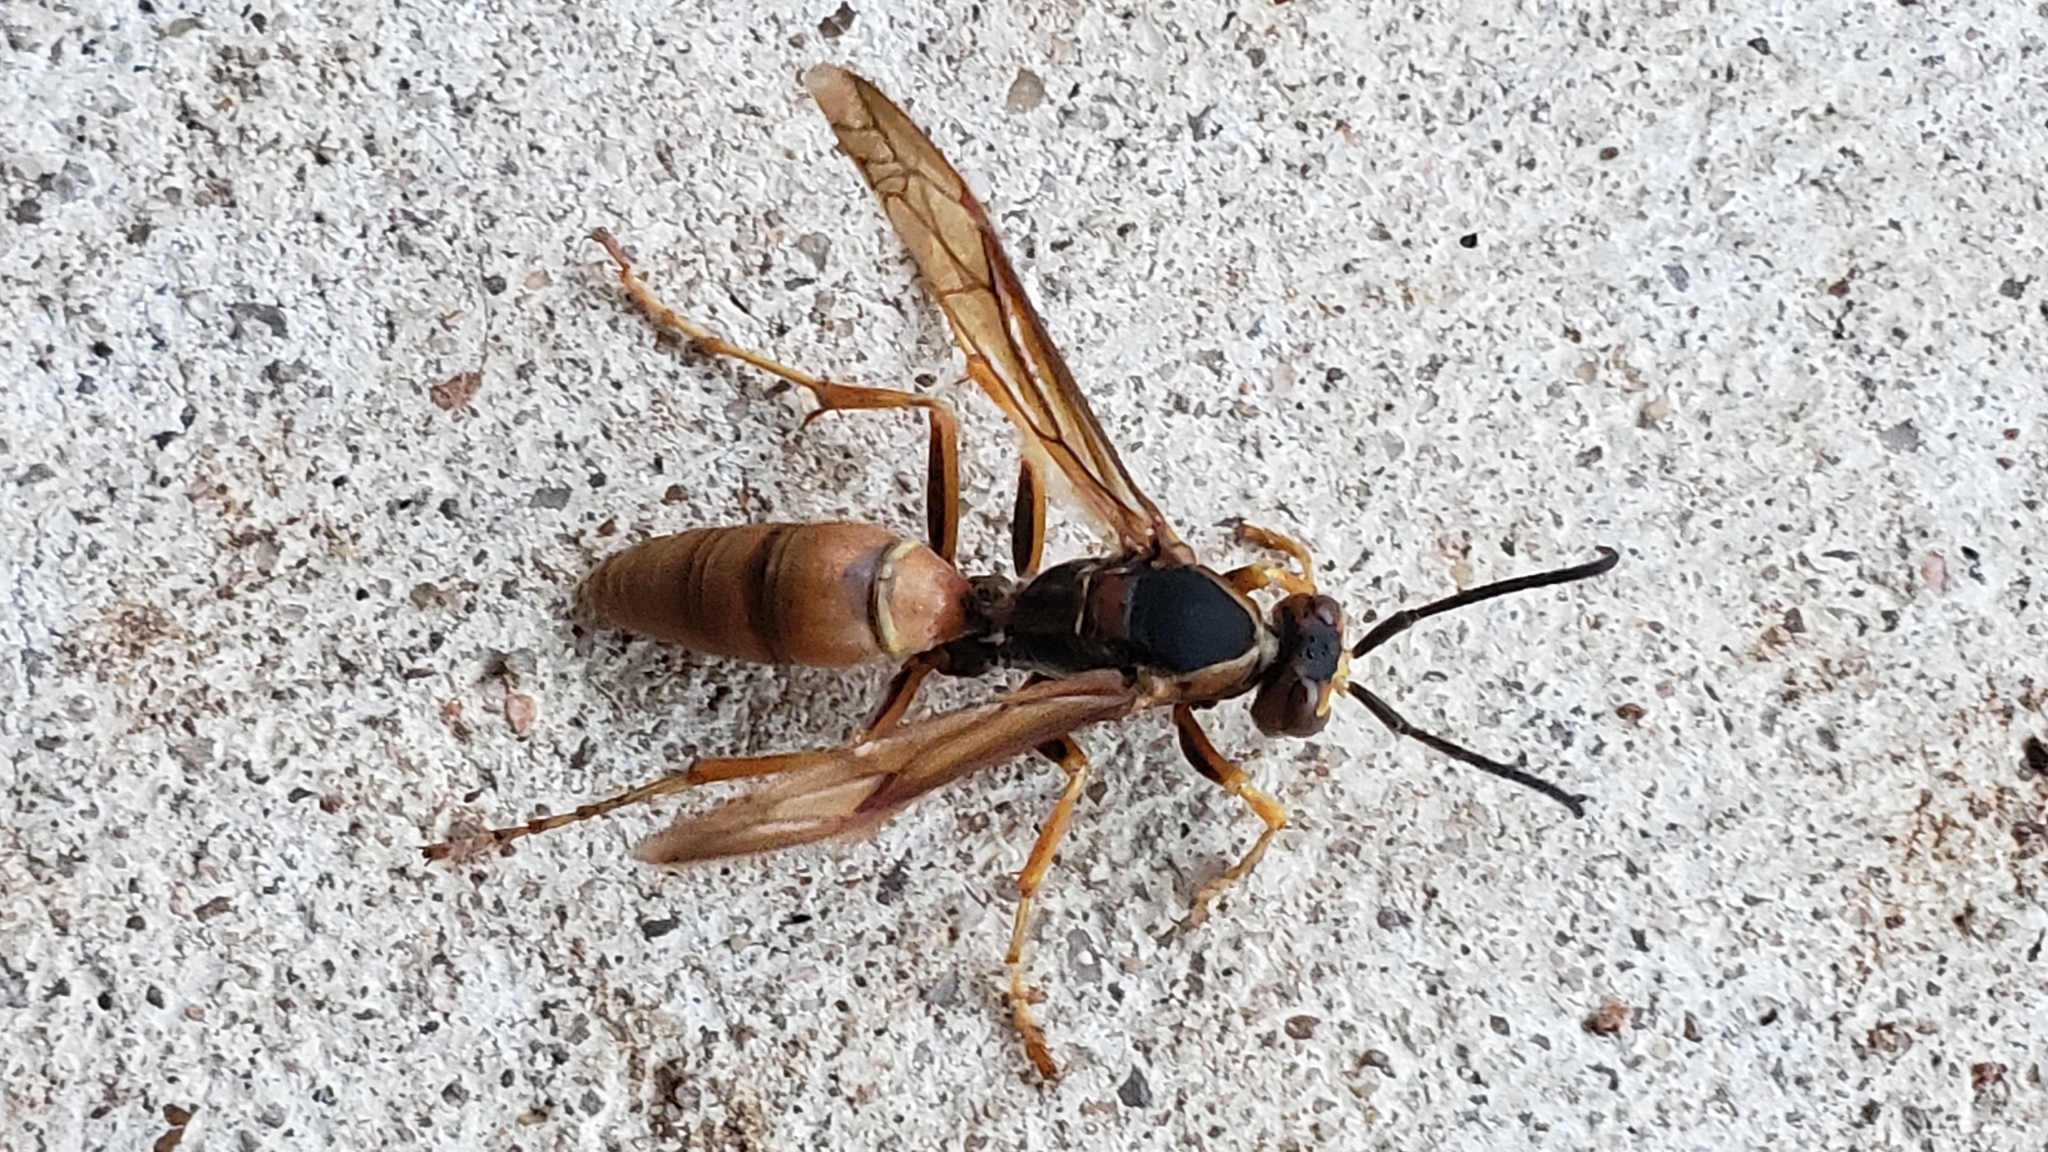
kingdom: Animalia
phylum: Arthropoda
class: Insecta
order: Hymenoptera
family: Eumenidae
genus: Polistes
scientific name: Polistes fuscatus
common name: Dark paper wasp
